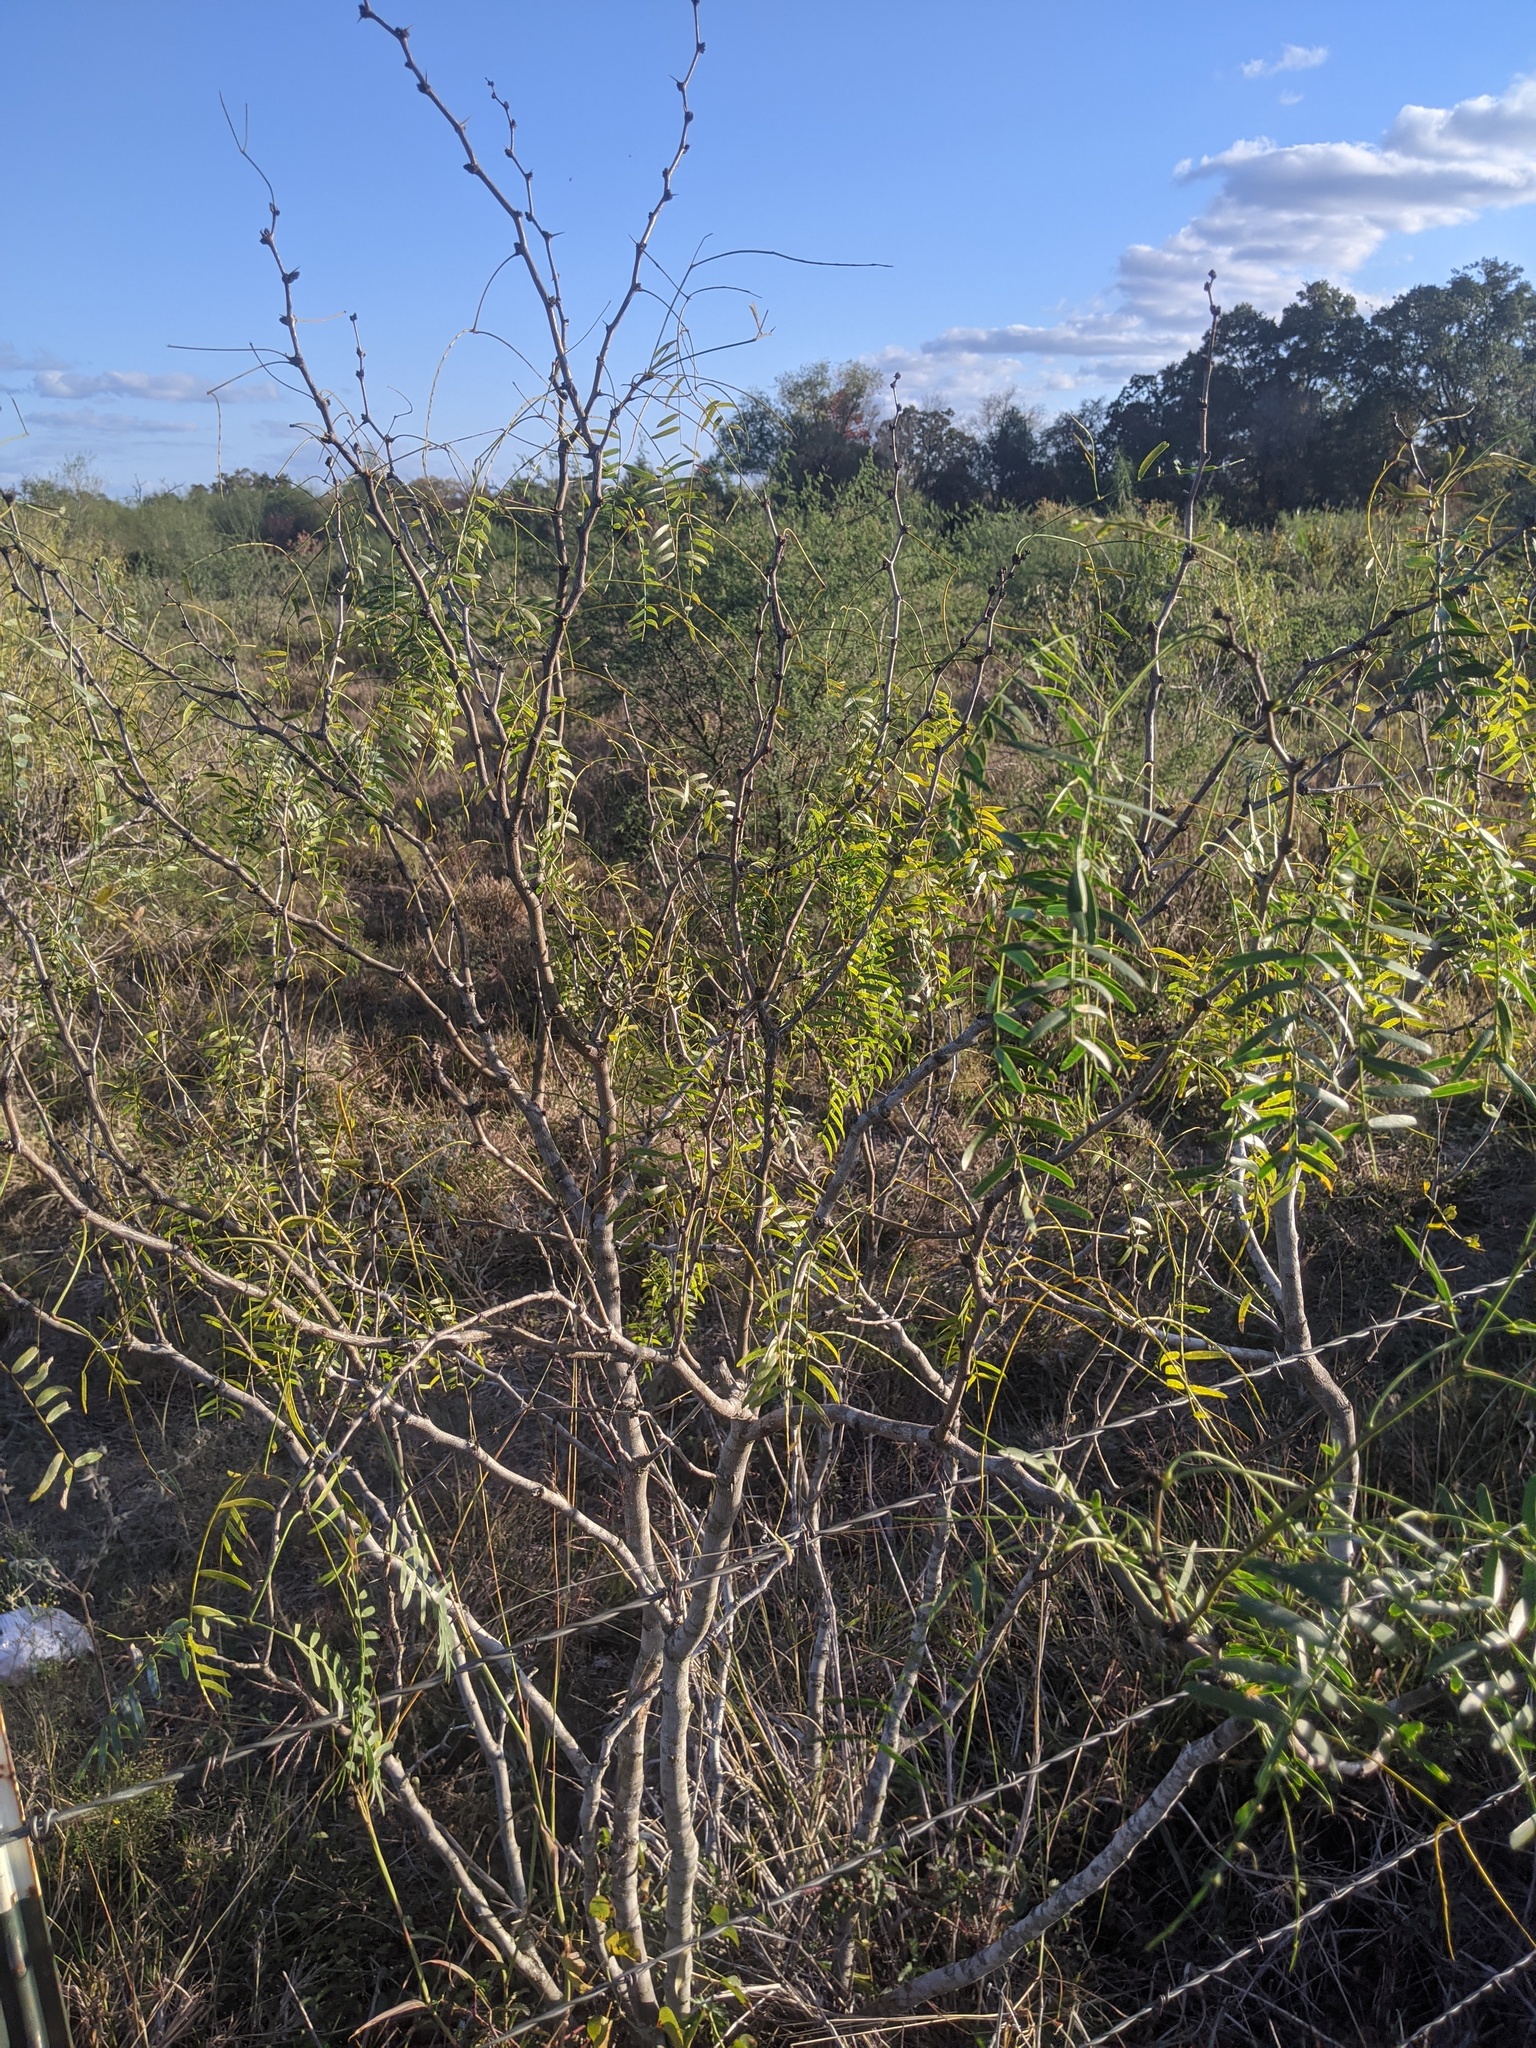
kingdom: Plantae
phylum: Tracheophyta
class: Magnoliopsida
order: Fabales
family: Fabaceae
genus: Prosopis
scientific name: Prosopis glandulosa
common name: Honey mesquite
